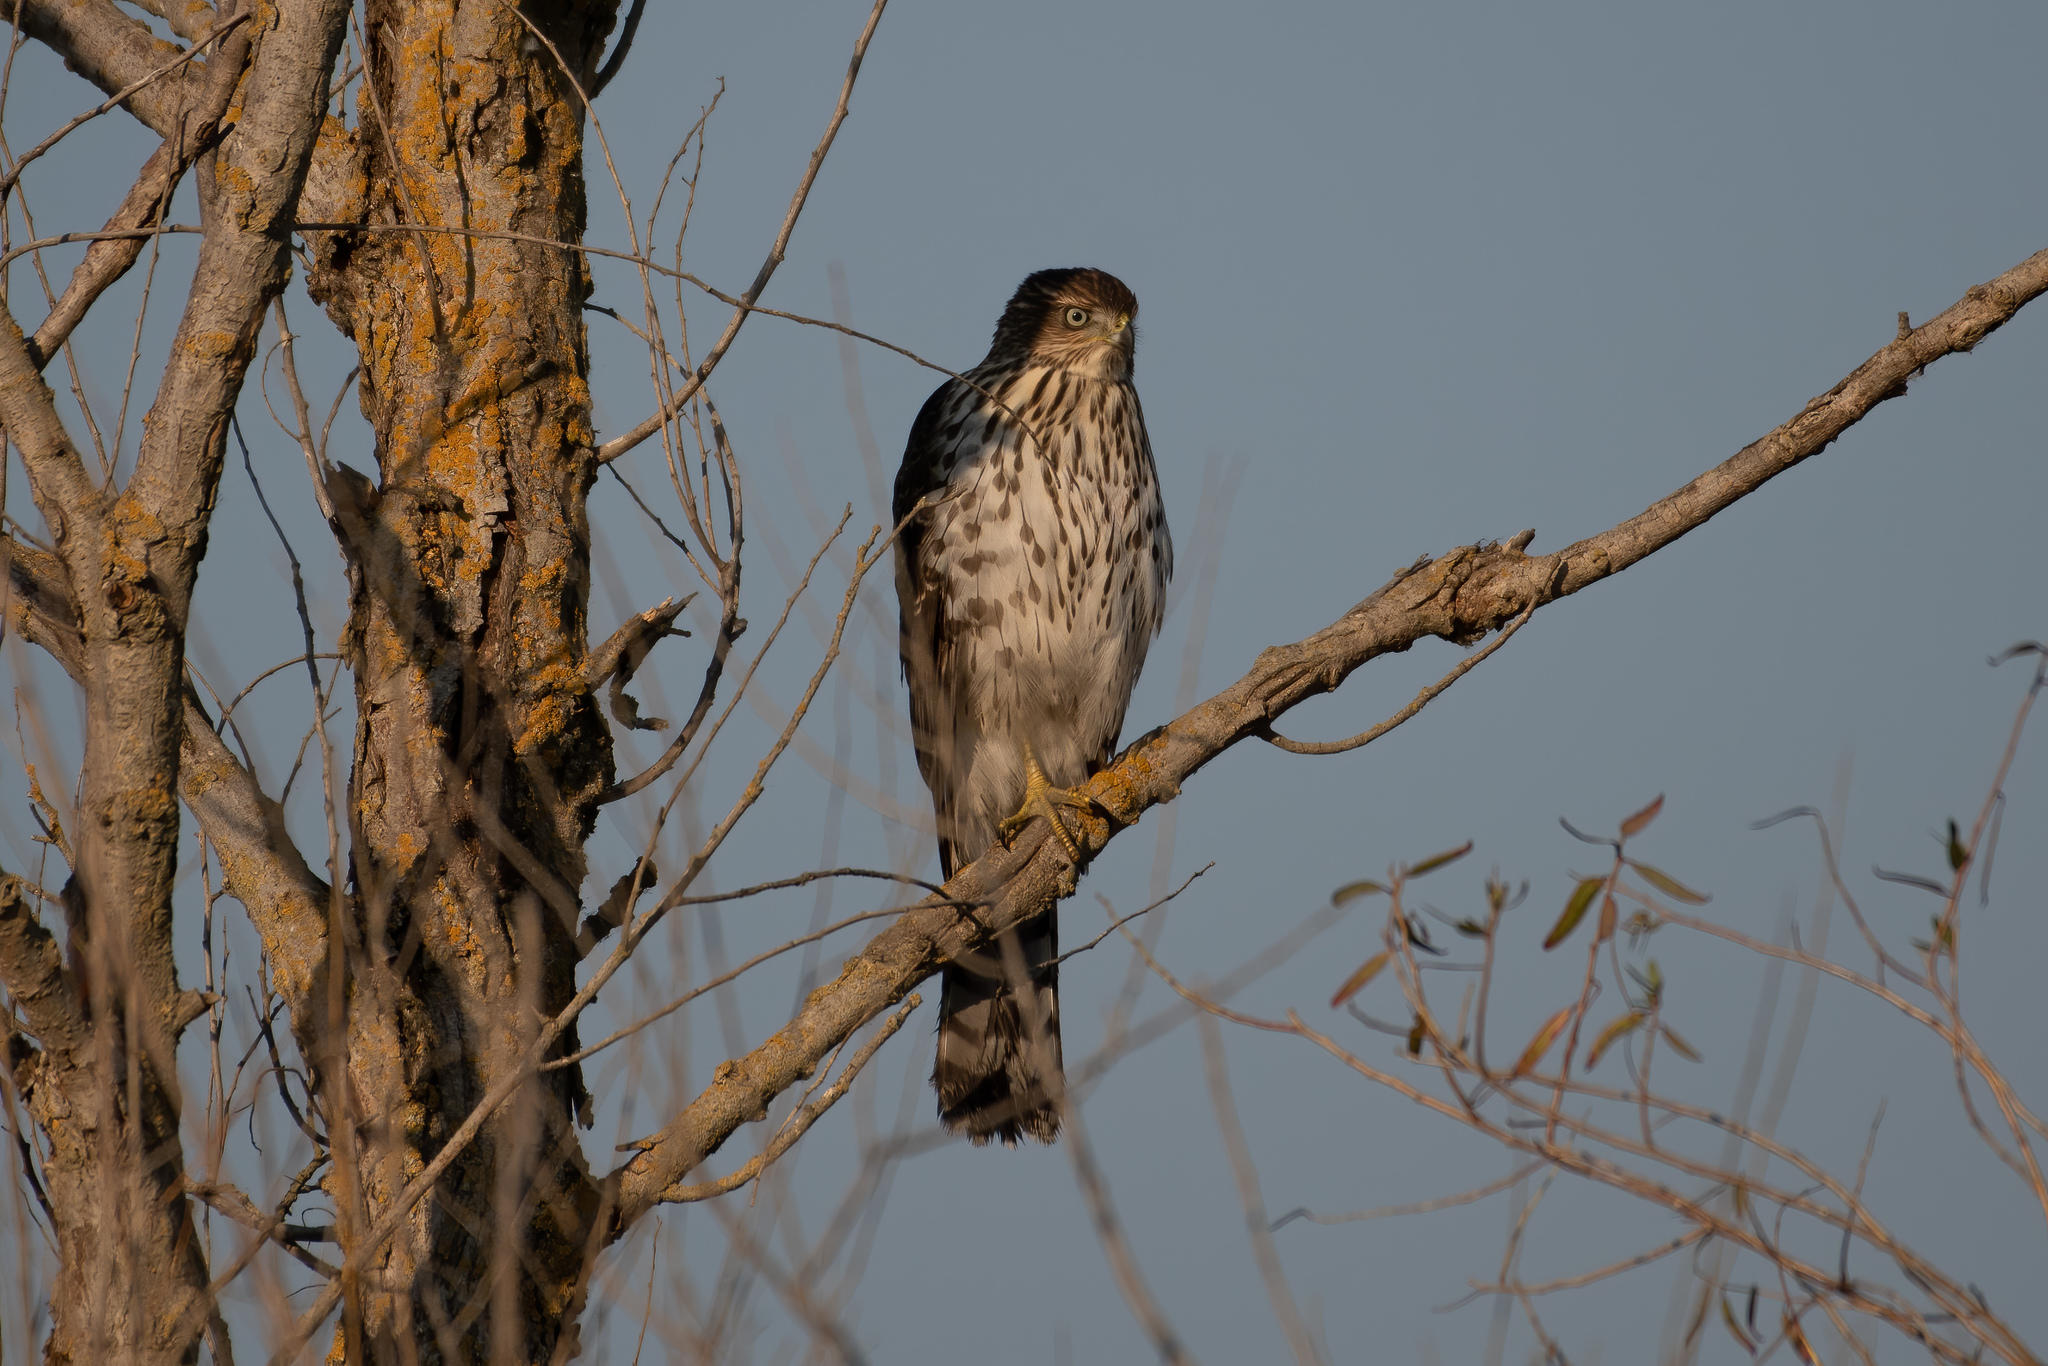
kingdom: Animalia
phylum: Chordata
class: Aves
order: Accipitriformes
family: Accipitridae
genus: Accipiter
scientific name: Accipiter cooperii
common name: Cooper's hawk
